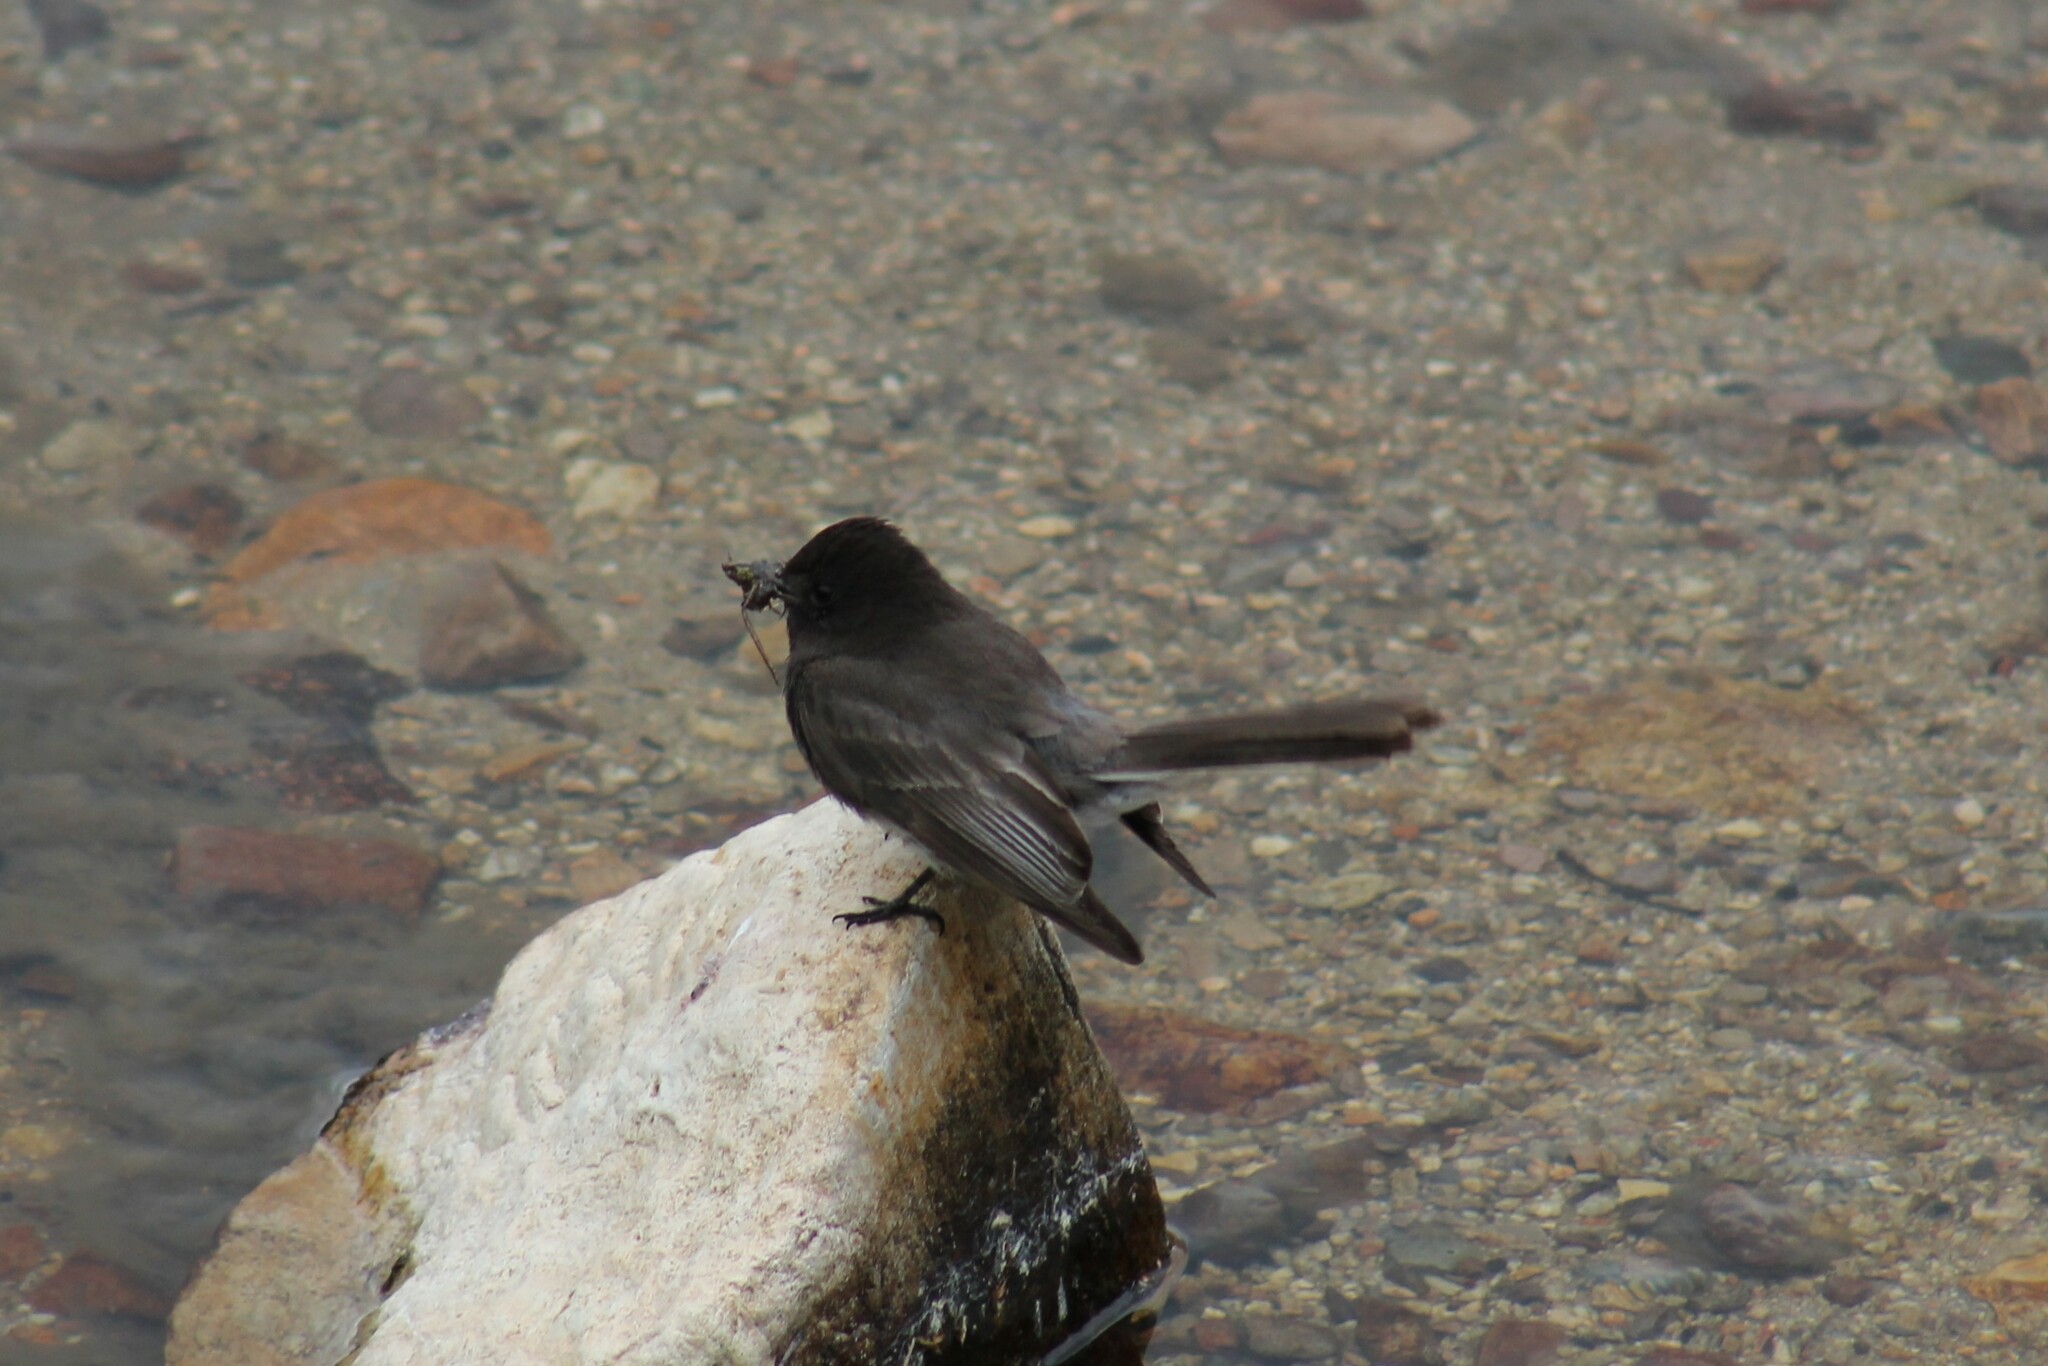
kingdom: Animalia
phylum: Chordata
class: Aves
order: Passeriformes
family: Tyrannidae
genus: Sayornis
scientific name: Sayornis nigricans
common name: Black phoebe
